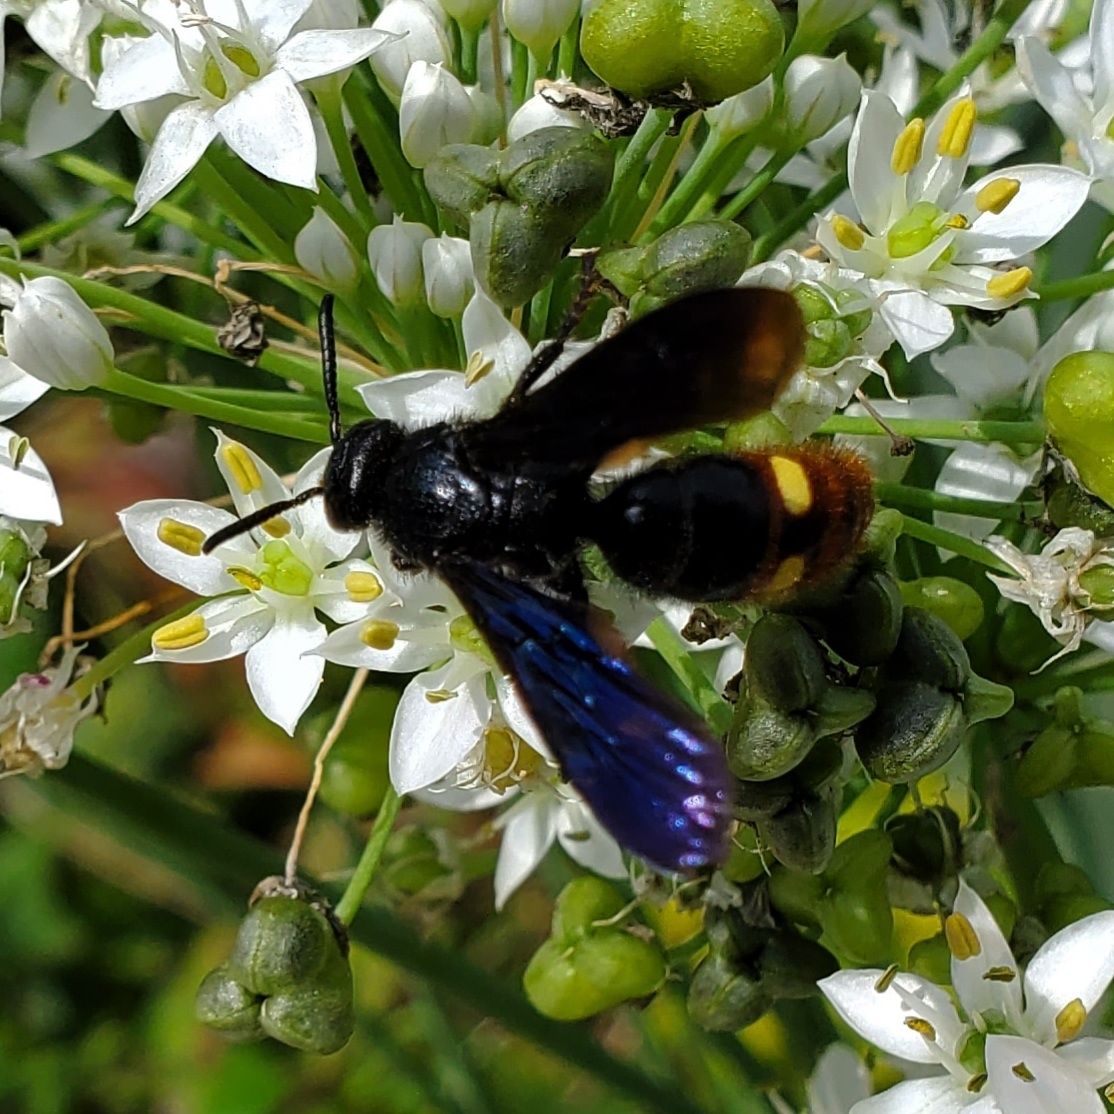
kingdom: Animalia
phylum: Arthropoda
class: Insecta
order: Hymenoptera
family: Scoliidae
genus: Scolia
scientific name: Scolia dubia
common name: Blue-winged scoliid wasp
